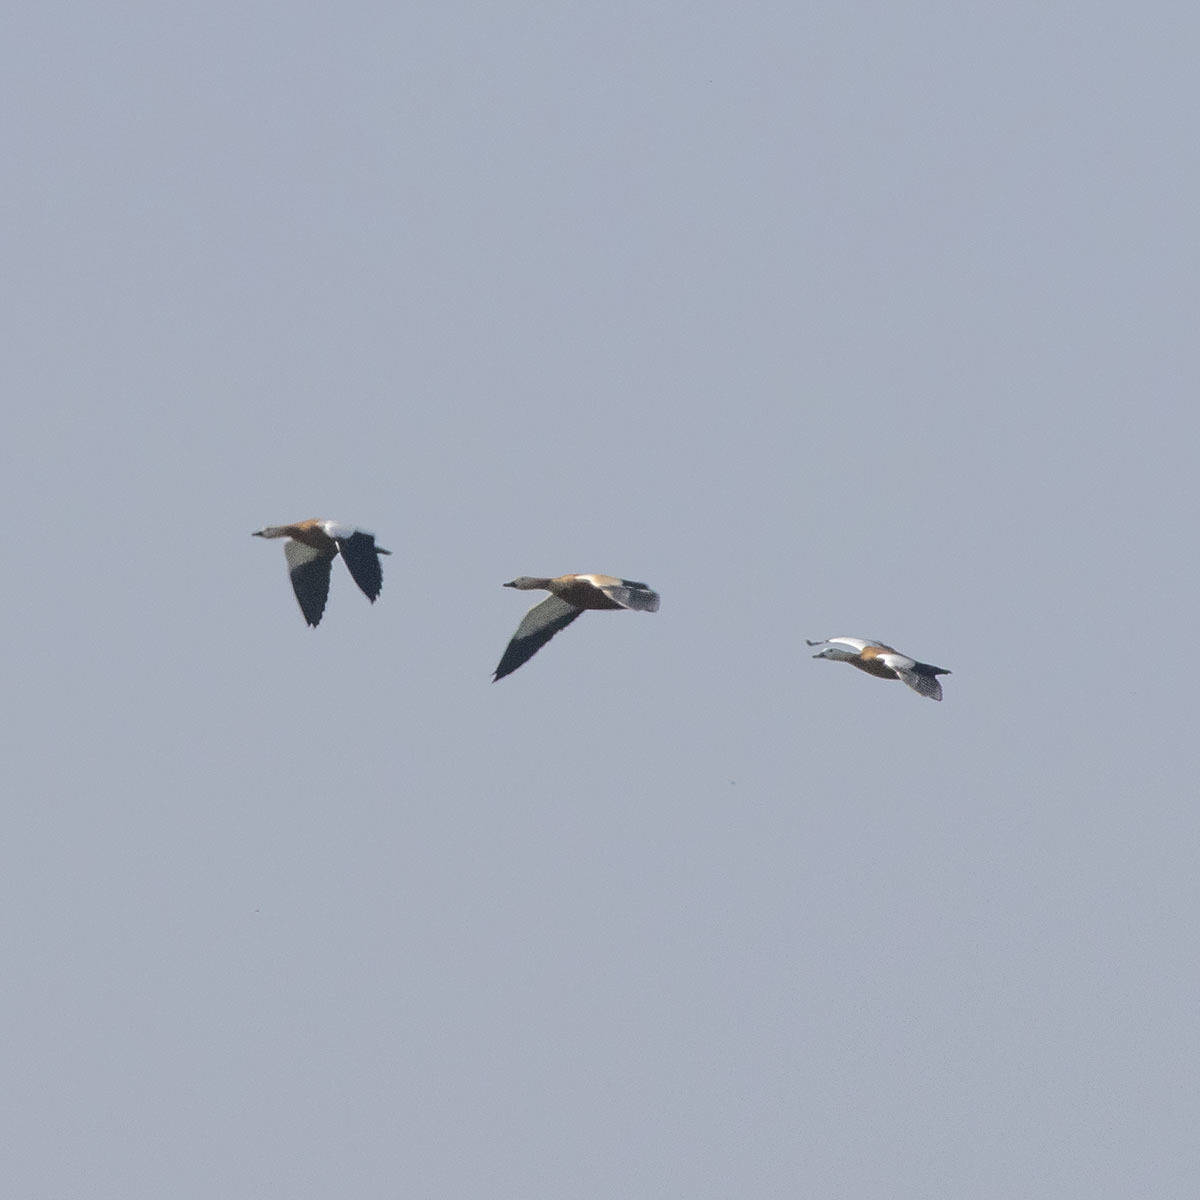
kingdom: Animalia
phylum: Chordata
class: Aves
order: Anseriformes
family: Anatidae
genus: Tadorna
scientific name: Tadorna ferruginea
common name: Ruddy shelduck
